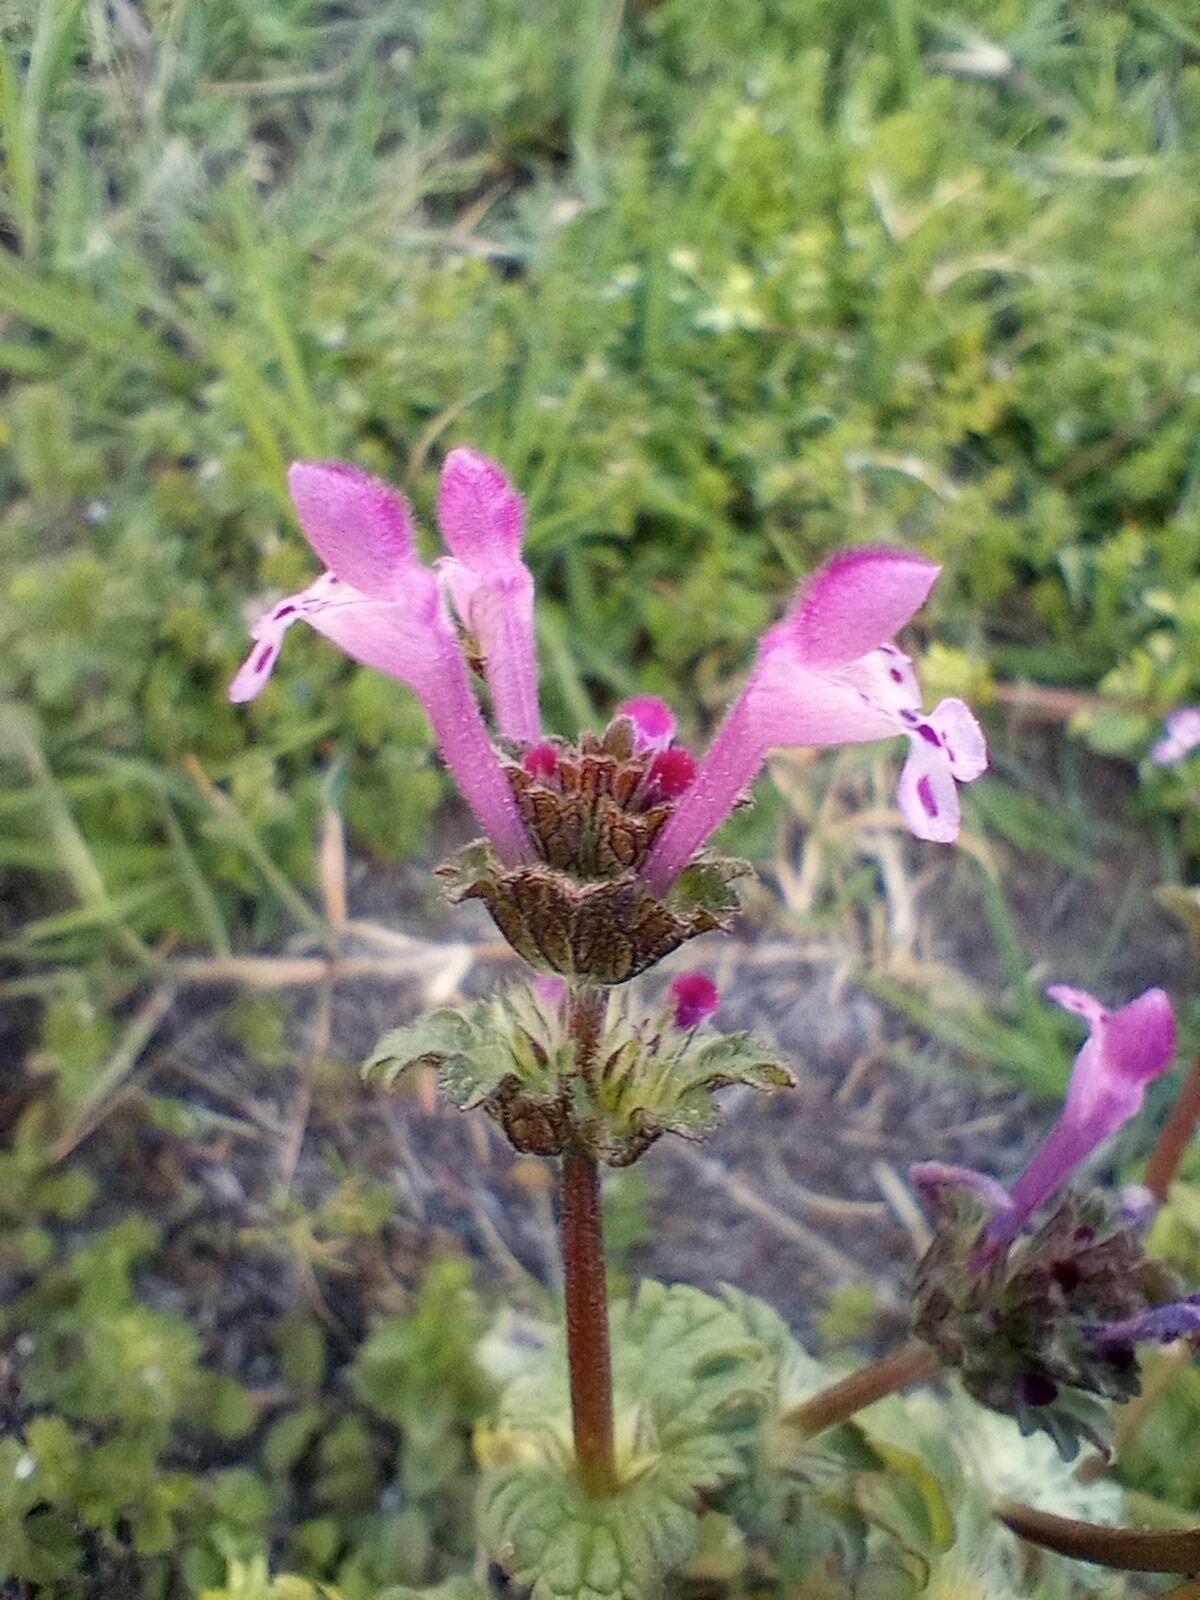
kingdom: Plantae
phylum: Tracheophyta
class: Magnoliopsida
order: Lamiales
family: Lamiaceae
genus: Lamium
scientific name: Lamium amplexicaule
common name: Henbit dead-nettle
